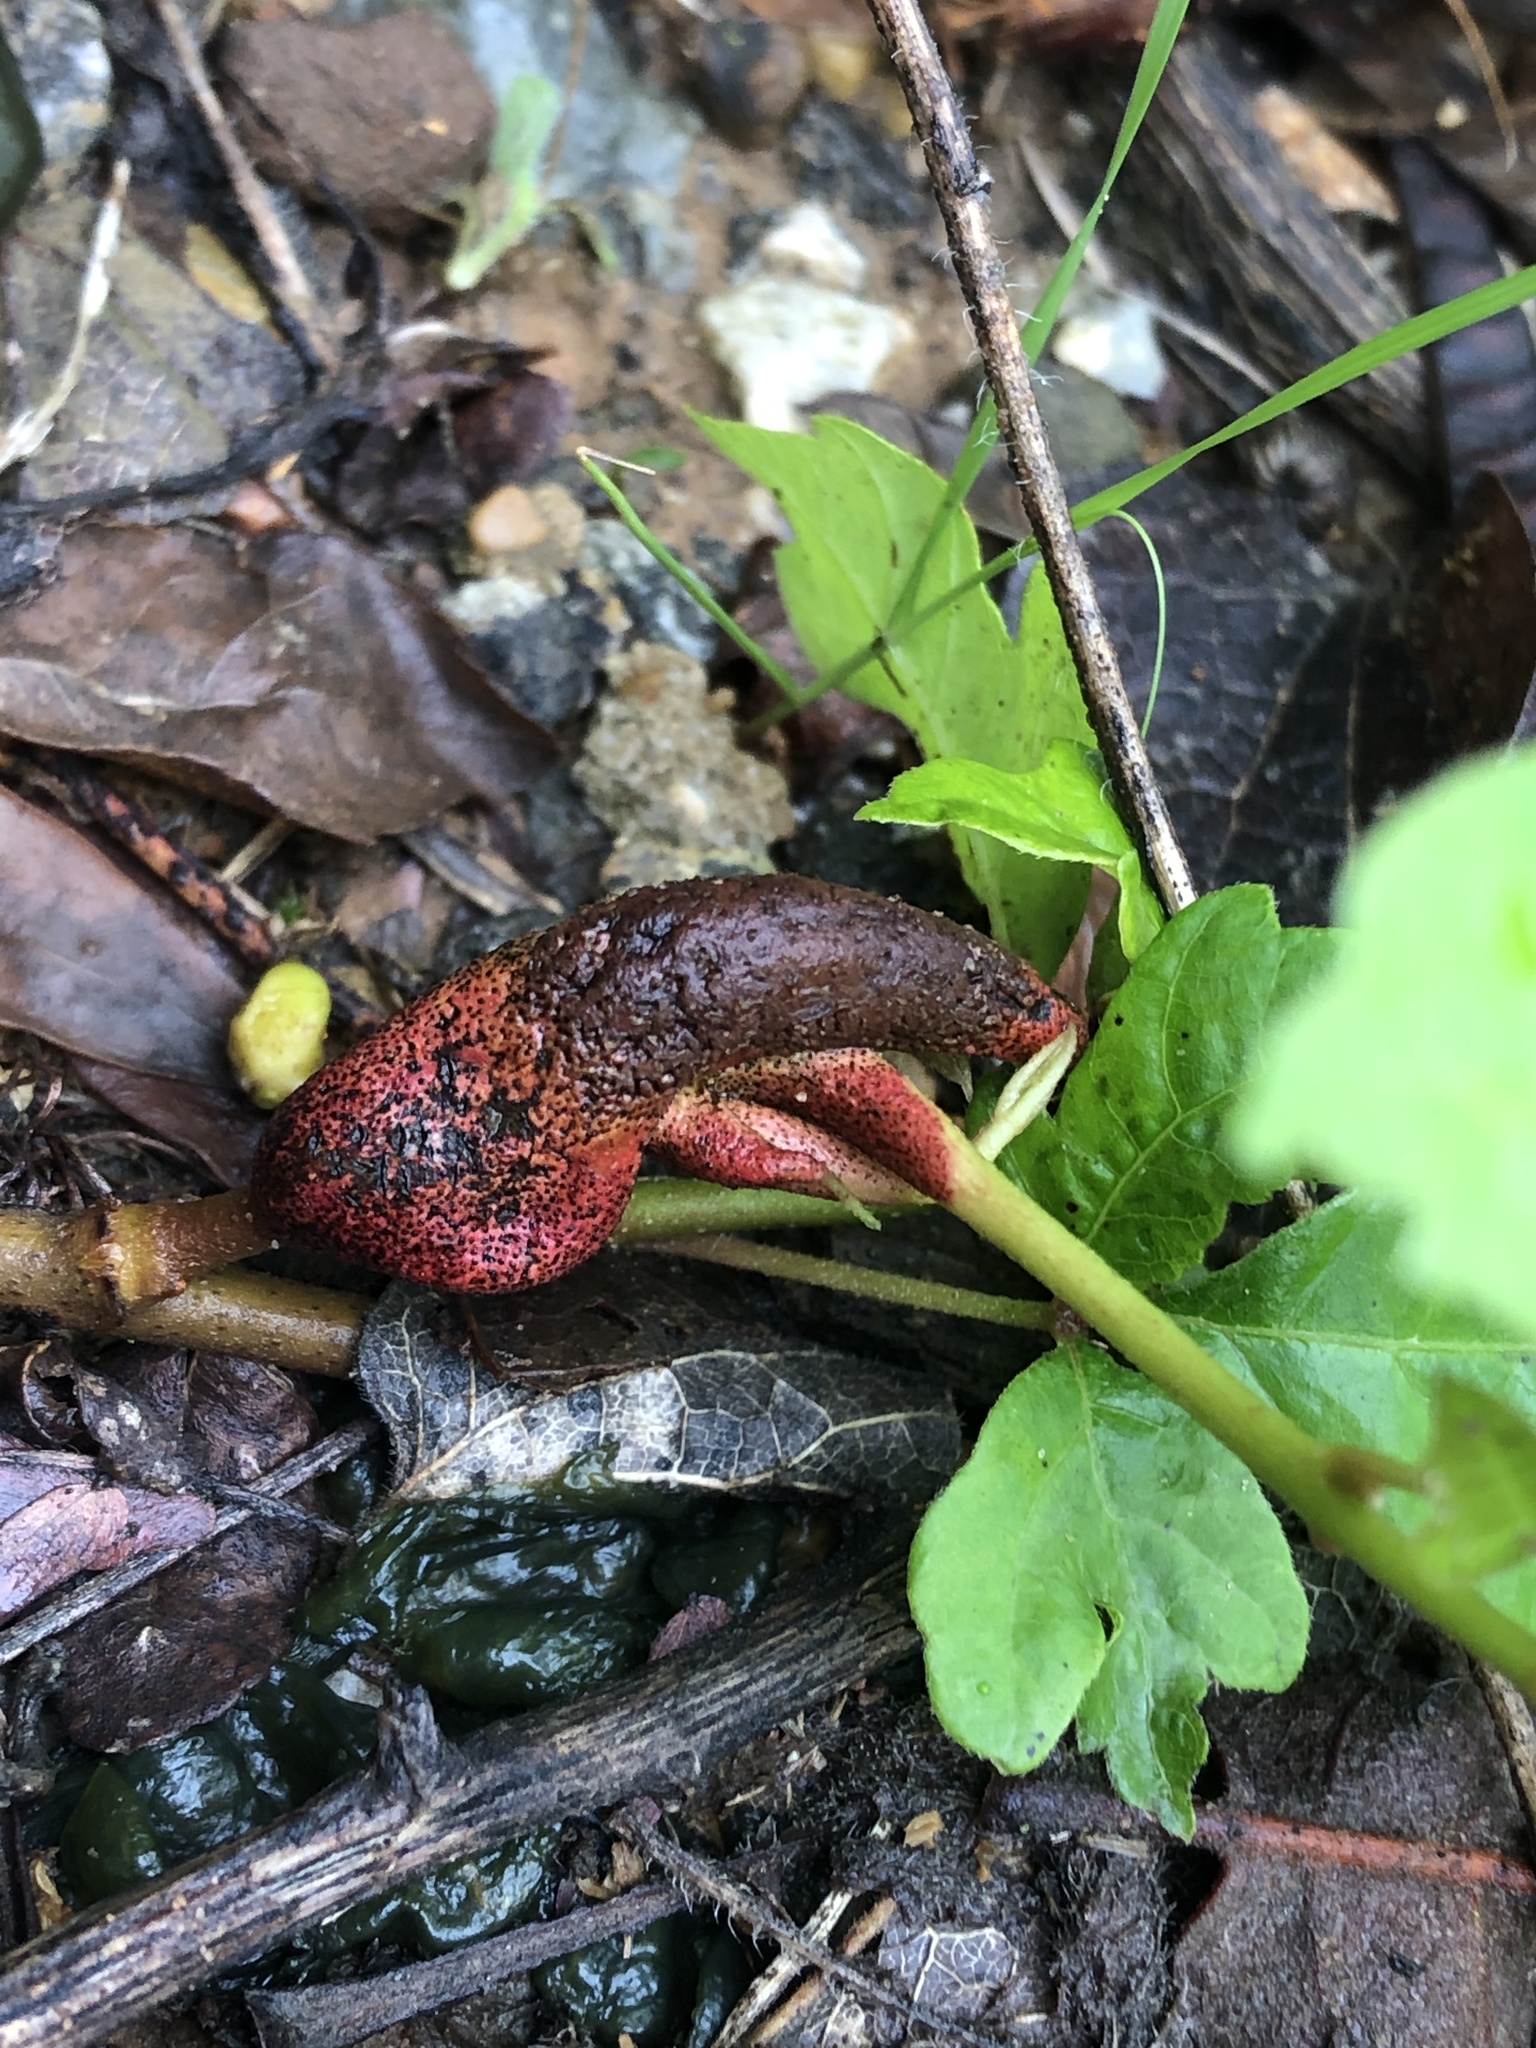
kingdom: Fungi
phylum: Basidiomycota
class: Pucciniomycetes
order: Pucciniales
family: Pileolariaceae
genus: Pileolaria
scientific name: Pileolaria brevipes
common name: Poison ivy rust
